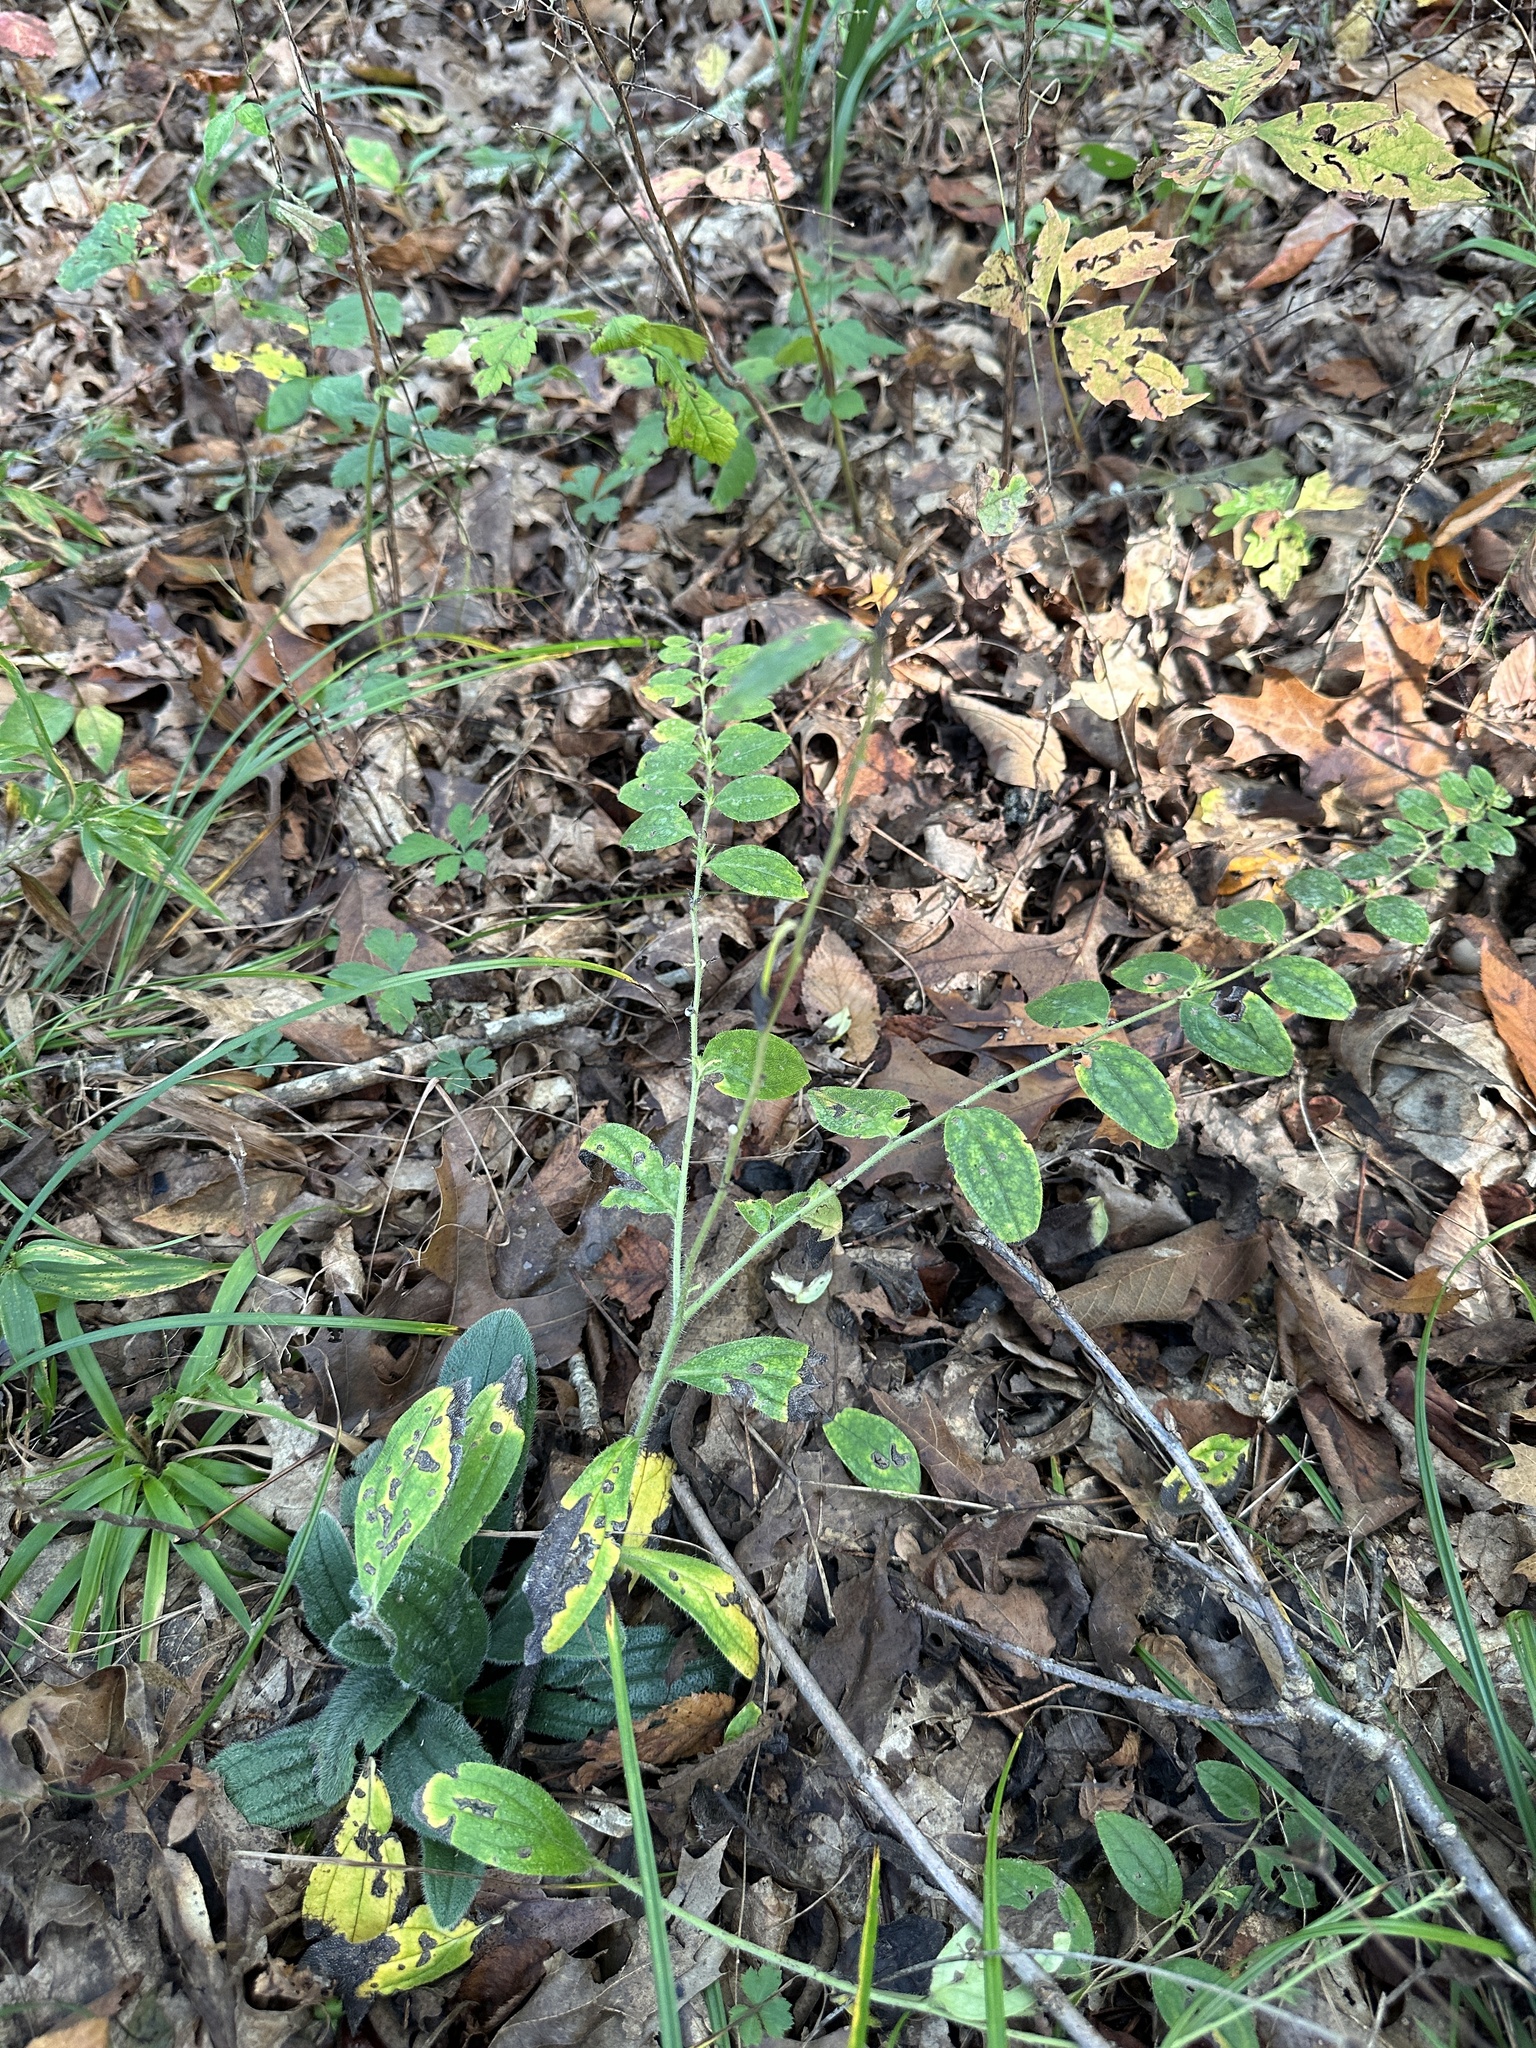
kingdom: Plantae
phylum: Tracheophyta
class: Magnoliopsida
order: Boraginales
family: Boraginaceae
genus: Lithospermum
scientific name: Lithospermum tuberosum
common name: Southern stoneseed
